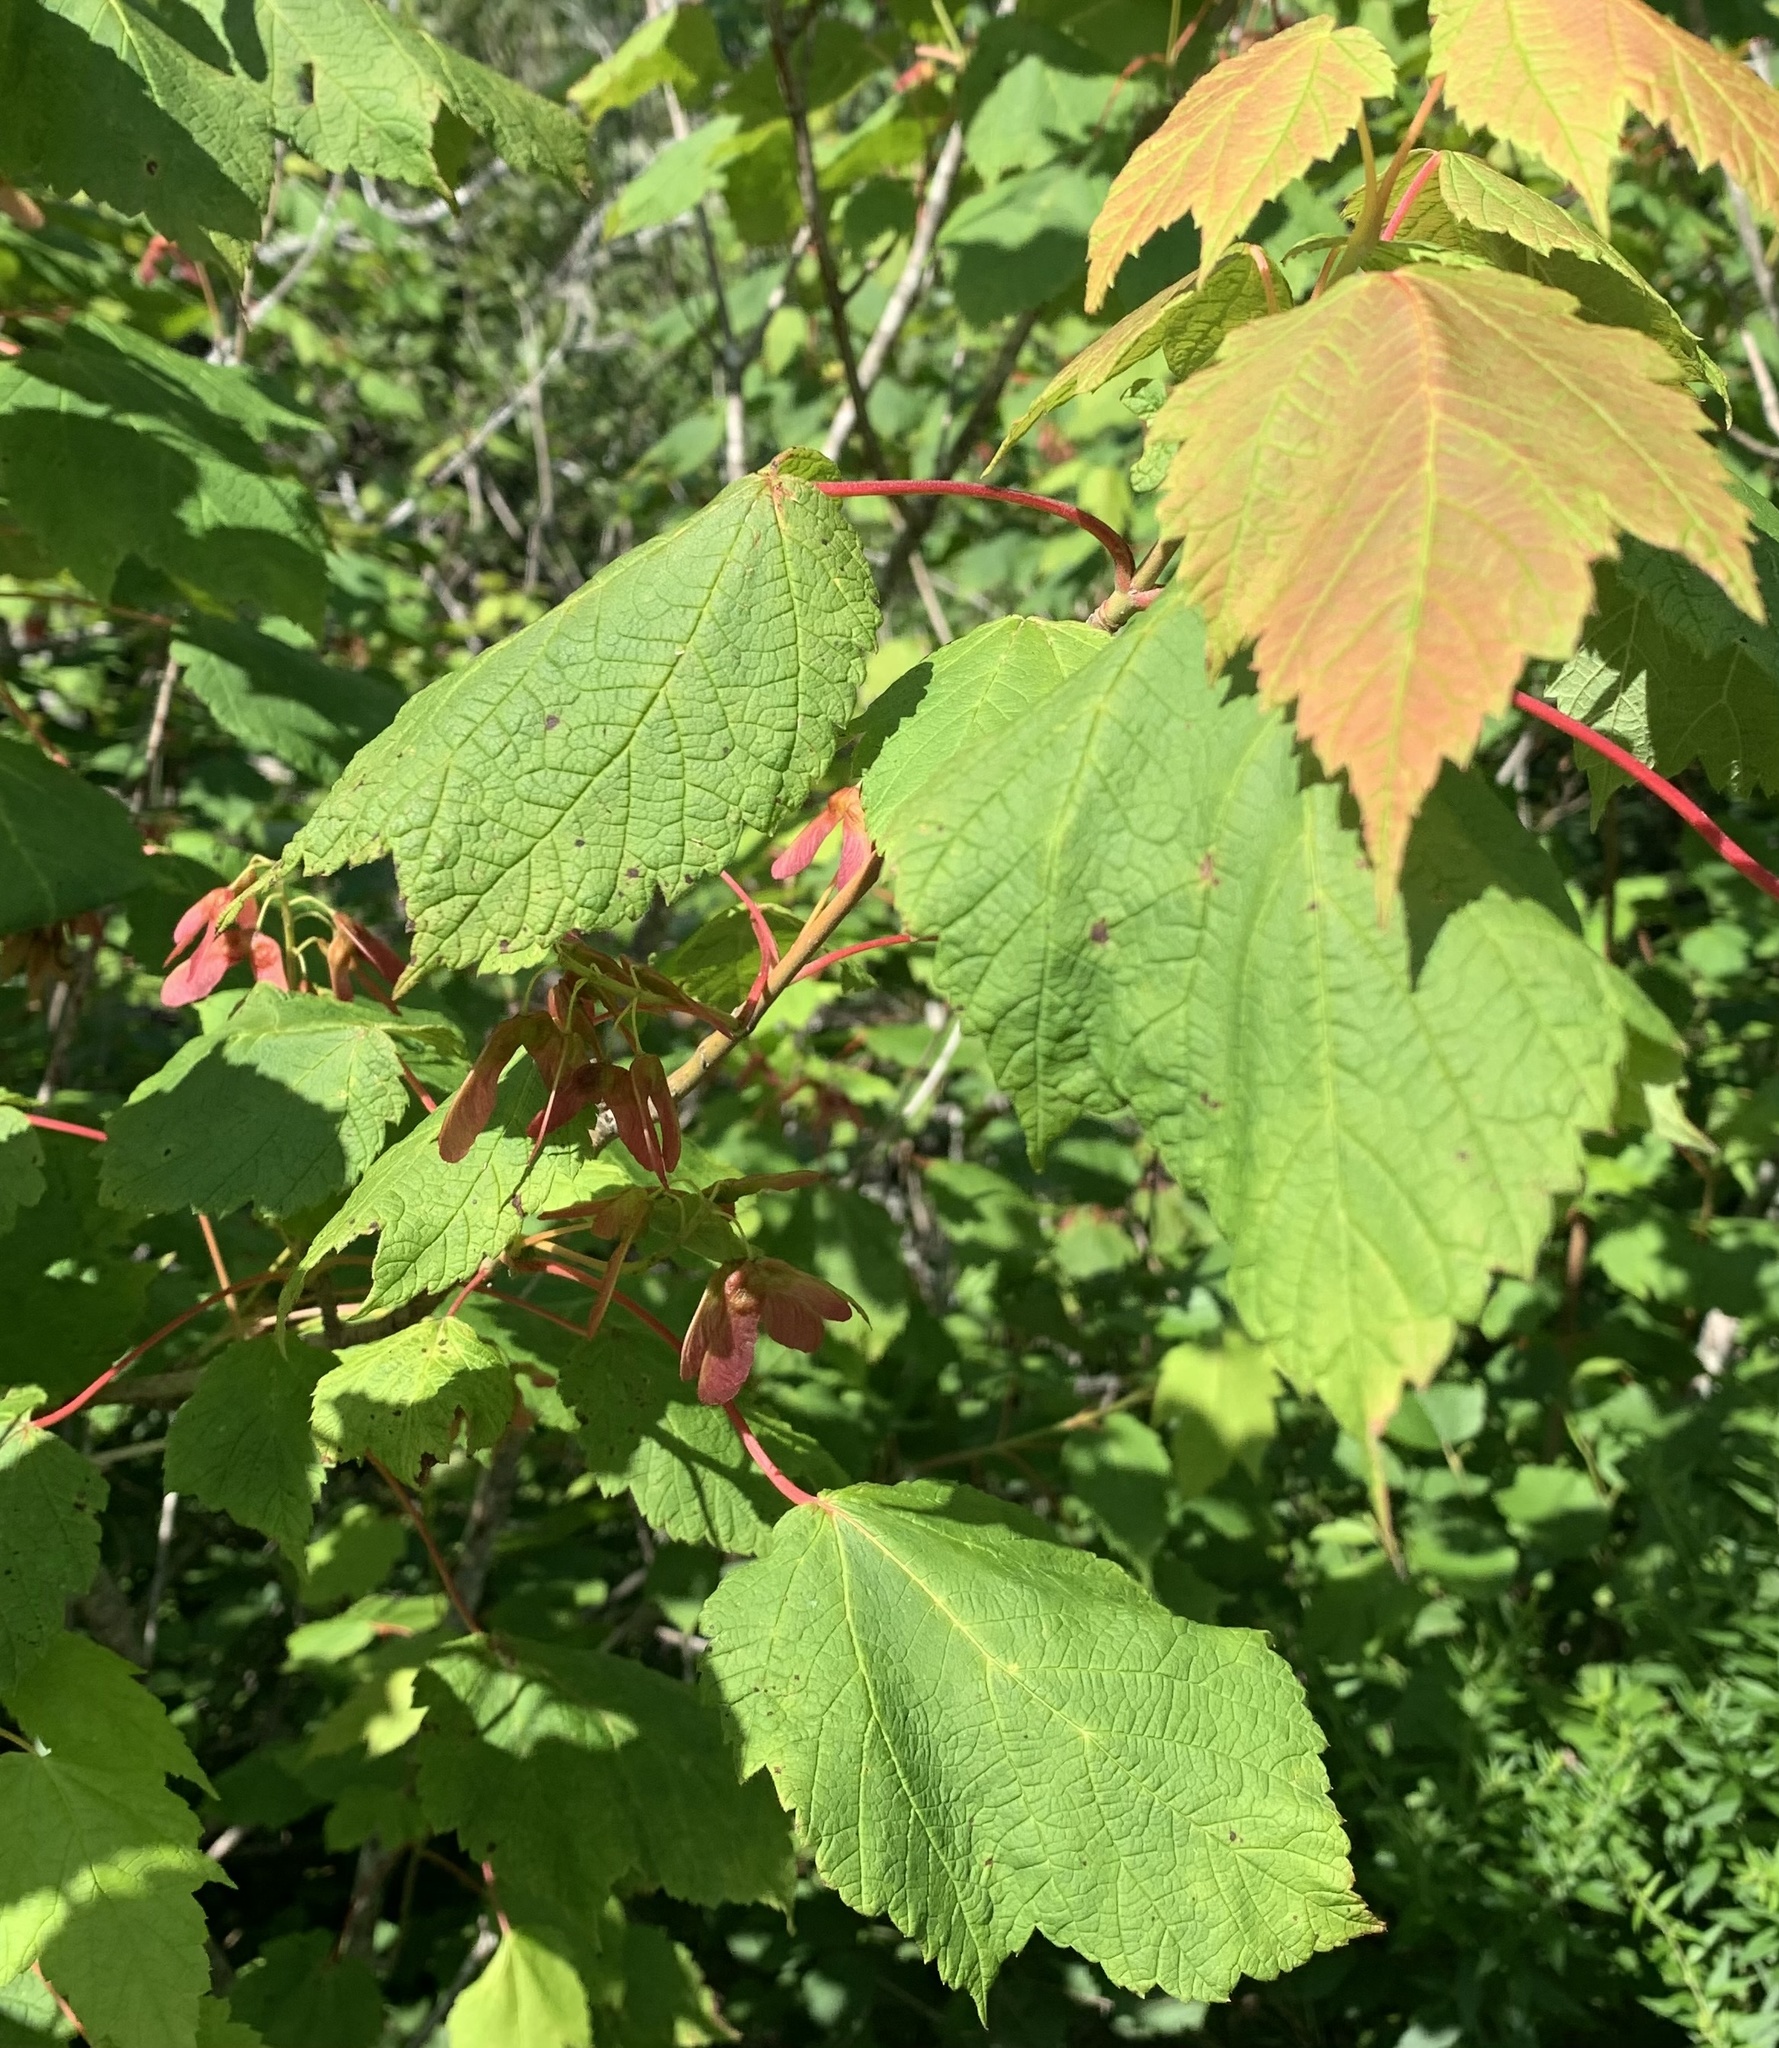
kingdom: Plantae
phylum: Tracheophyta
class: Magnoliopsida
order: Sapindales
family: Sapindaceae
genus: Acer
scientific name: Acer spicatum
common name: Mountain maple
